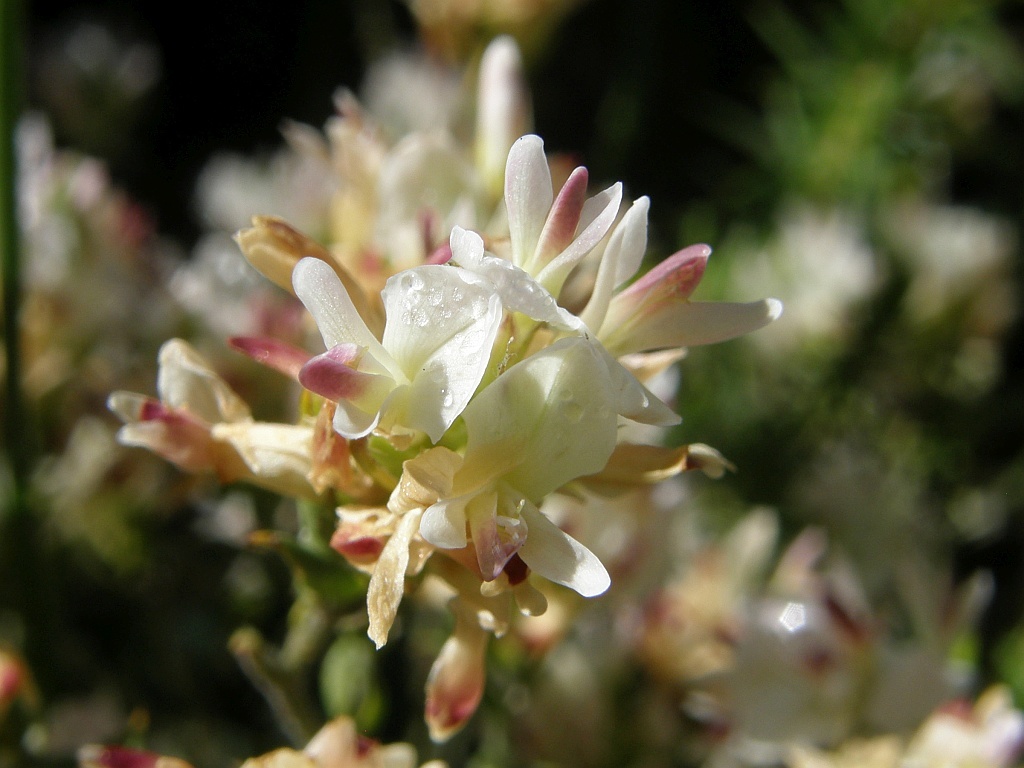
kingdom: Plantae
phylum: Tracheophyta
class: Magnoliopsida
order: Fabales
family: Fabaceae
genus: Amphithalea
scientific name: Amphithalea ciliaris
